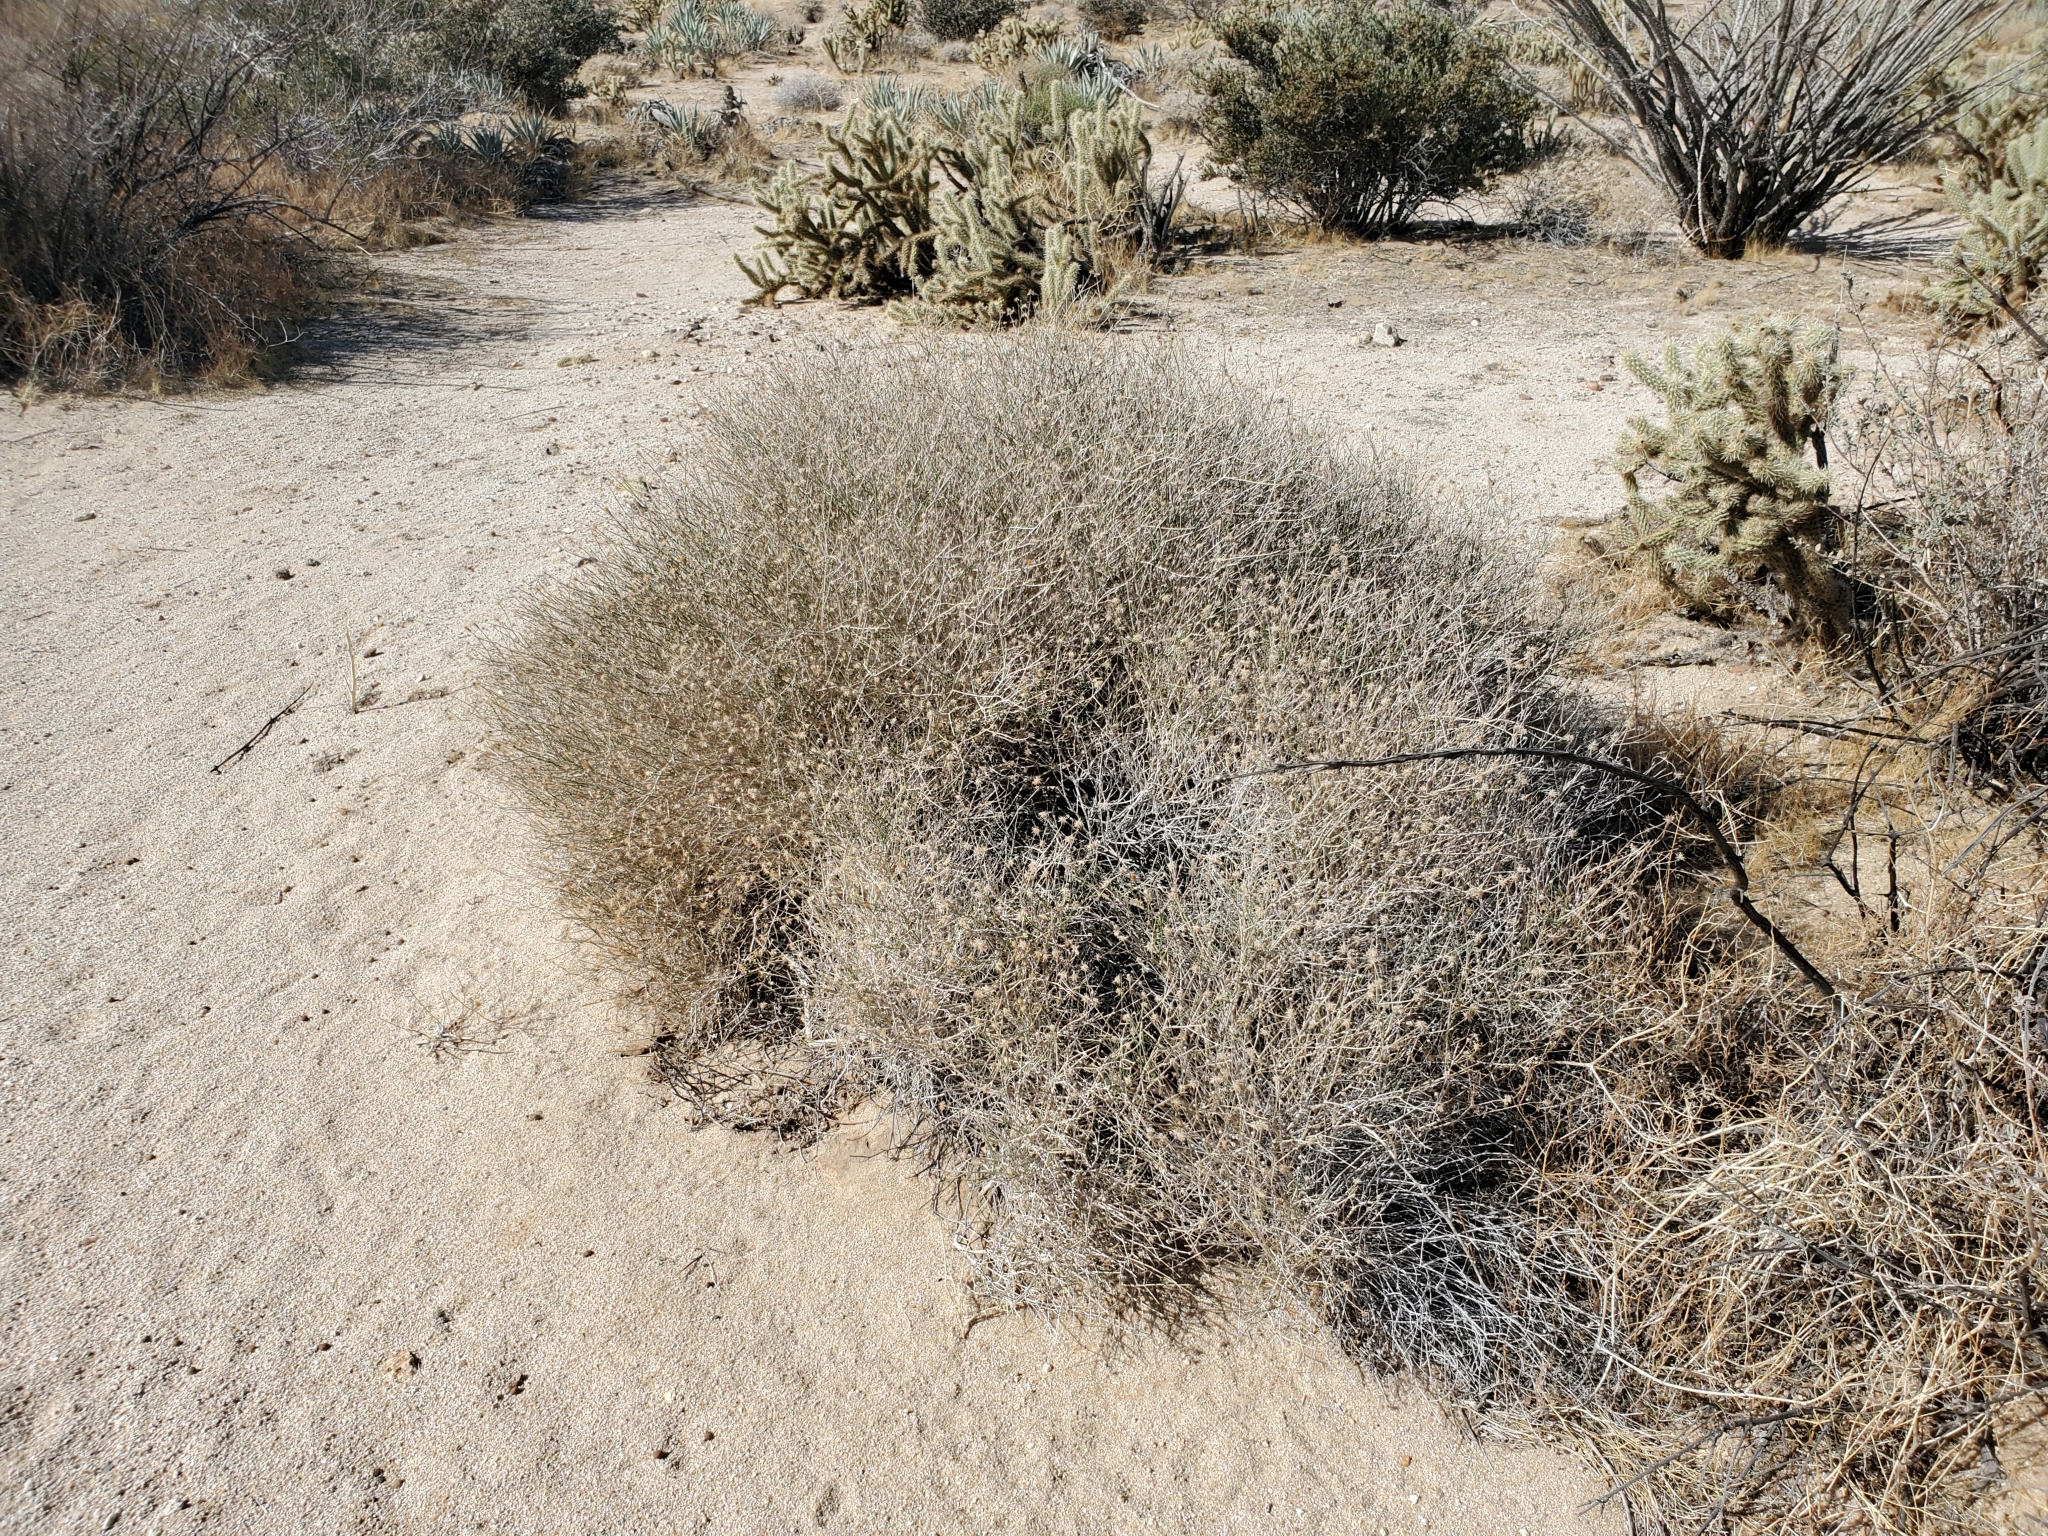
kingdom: Plantae
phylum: Tracheophyta
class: Magnoliopsida
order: Asterales
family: Asteraceae
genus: Bebbia
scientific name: Bebbia juncea
